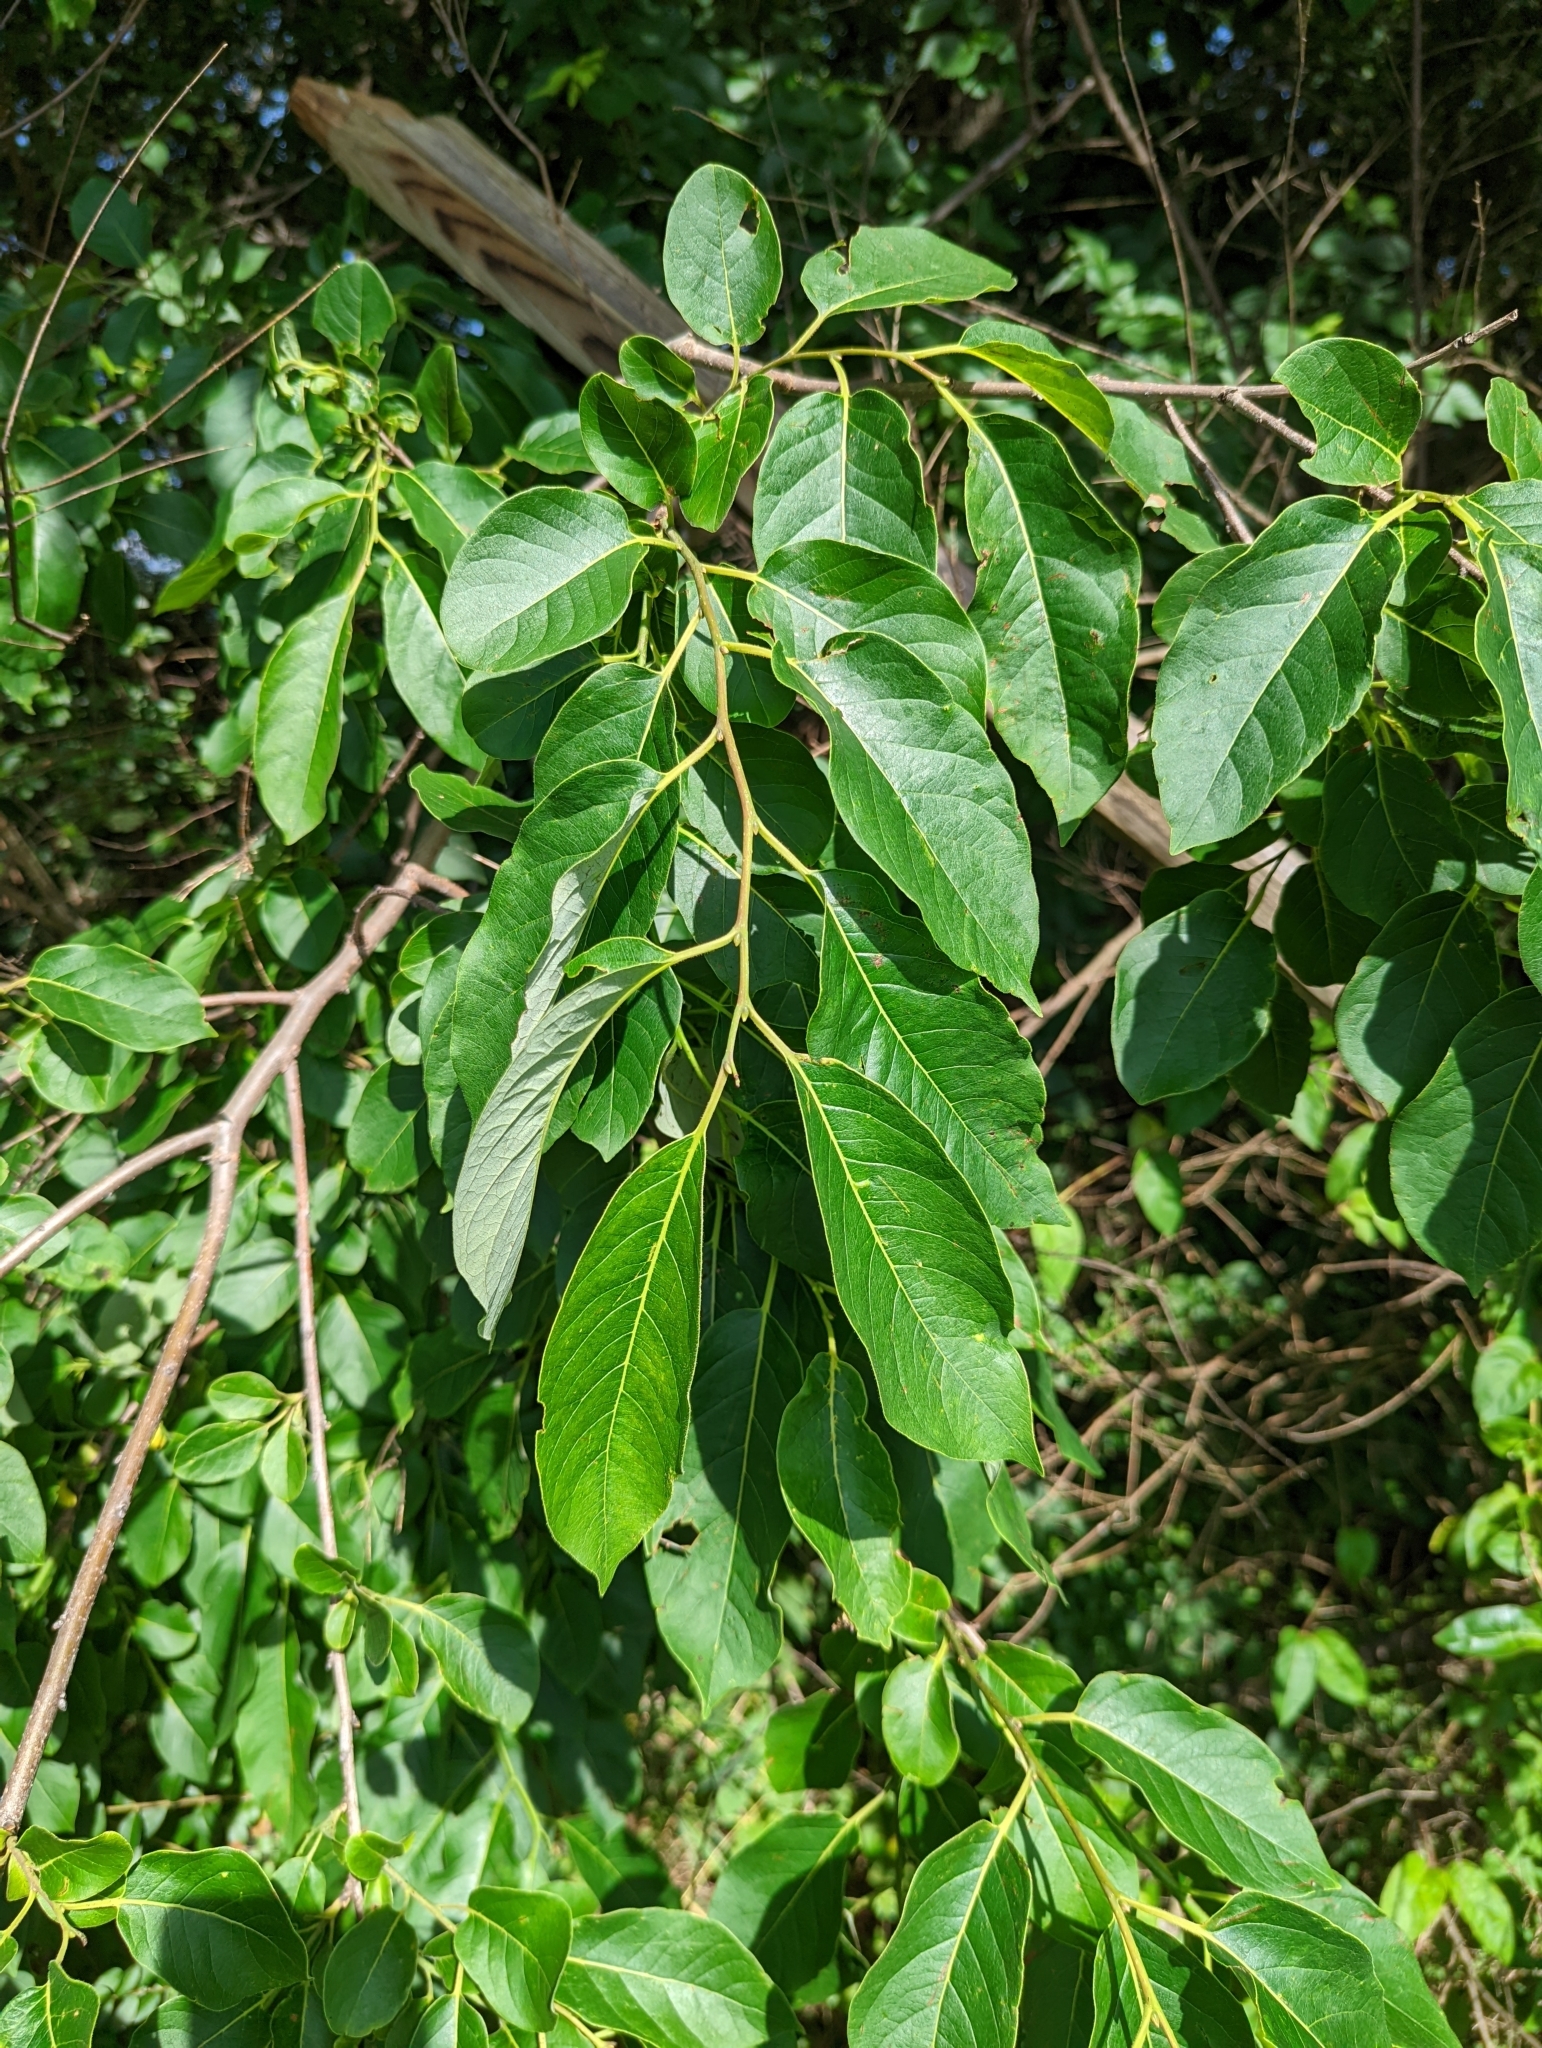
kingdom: Plantae
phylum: Tracheophyta
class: Magnoliopsida
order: Ericales
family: Ebenaceae
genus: Diospyros
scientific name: Diospyros virginiana
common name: Persimmon
